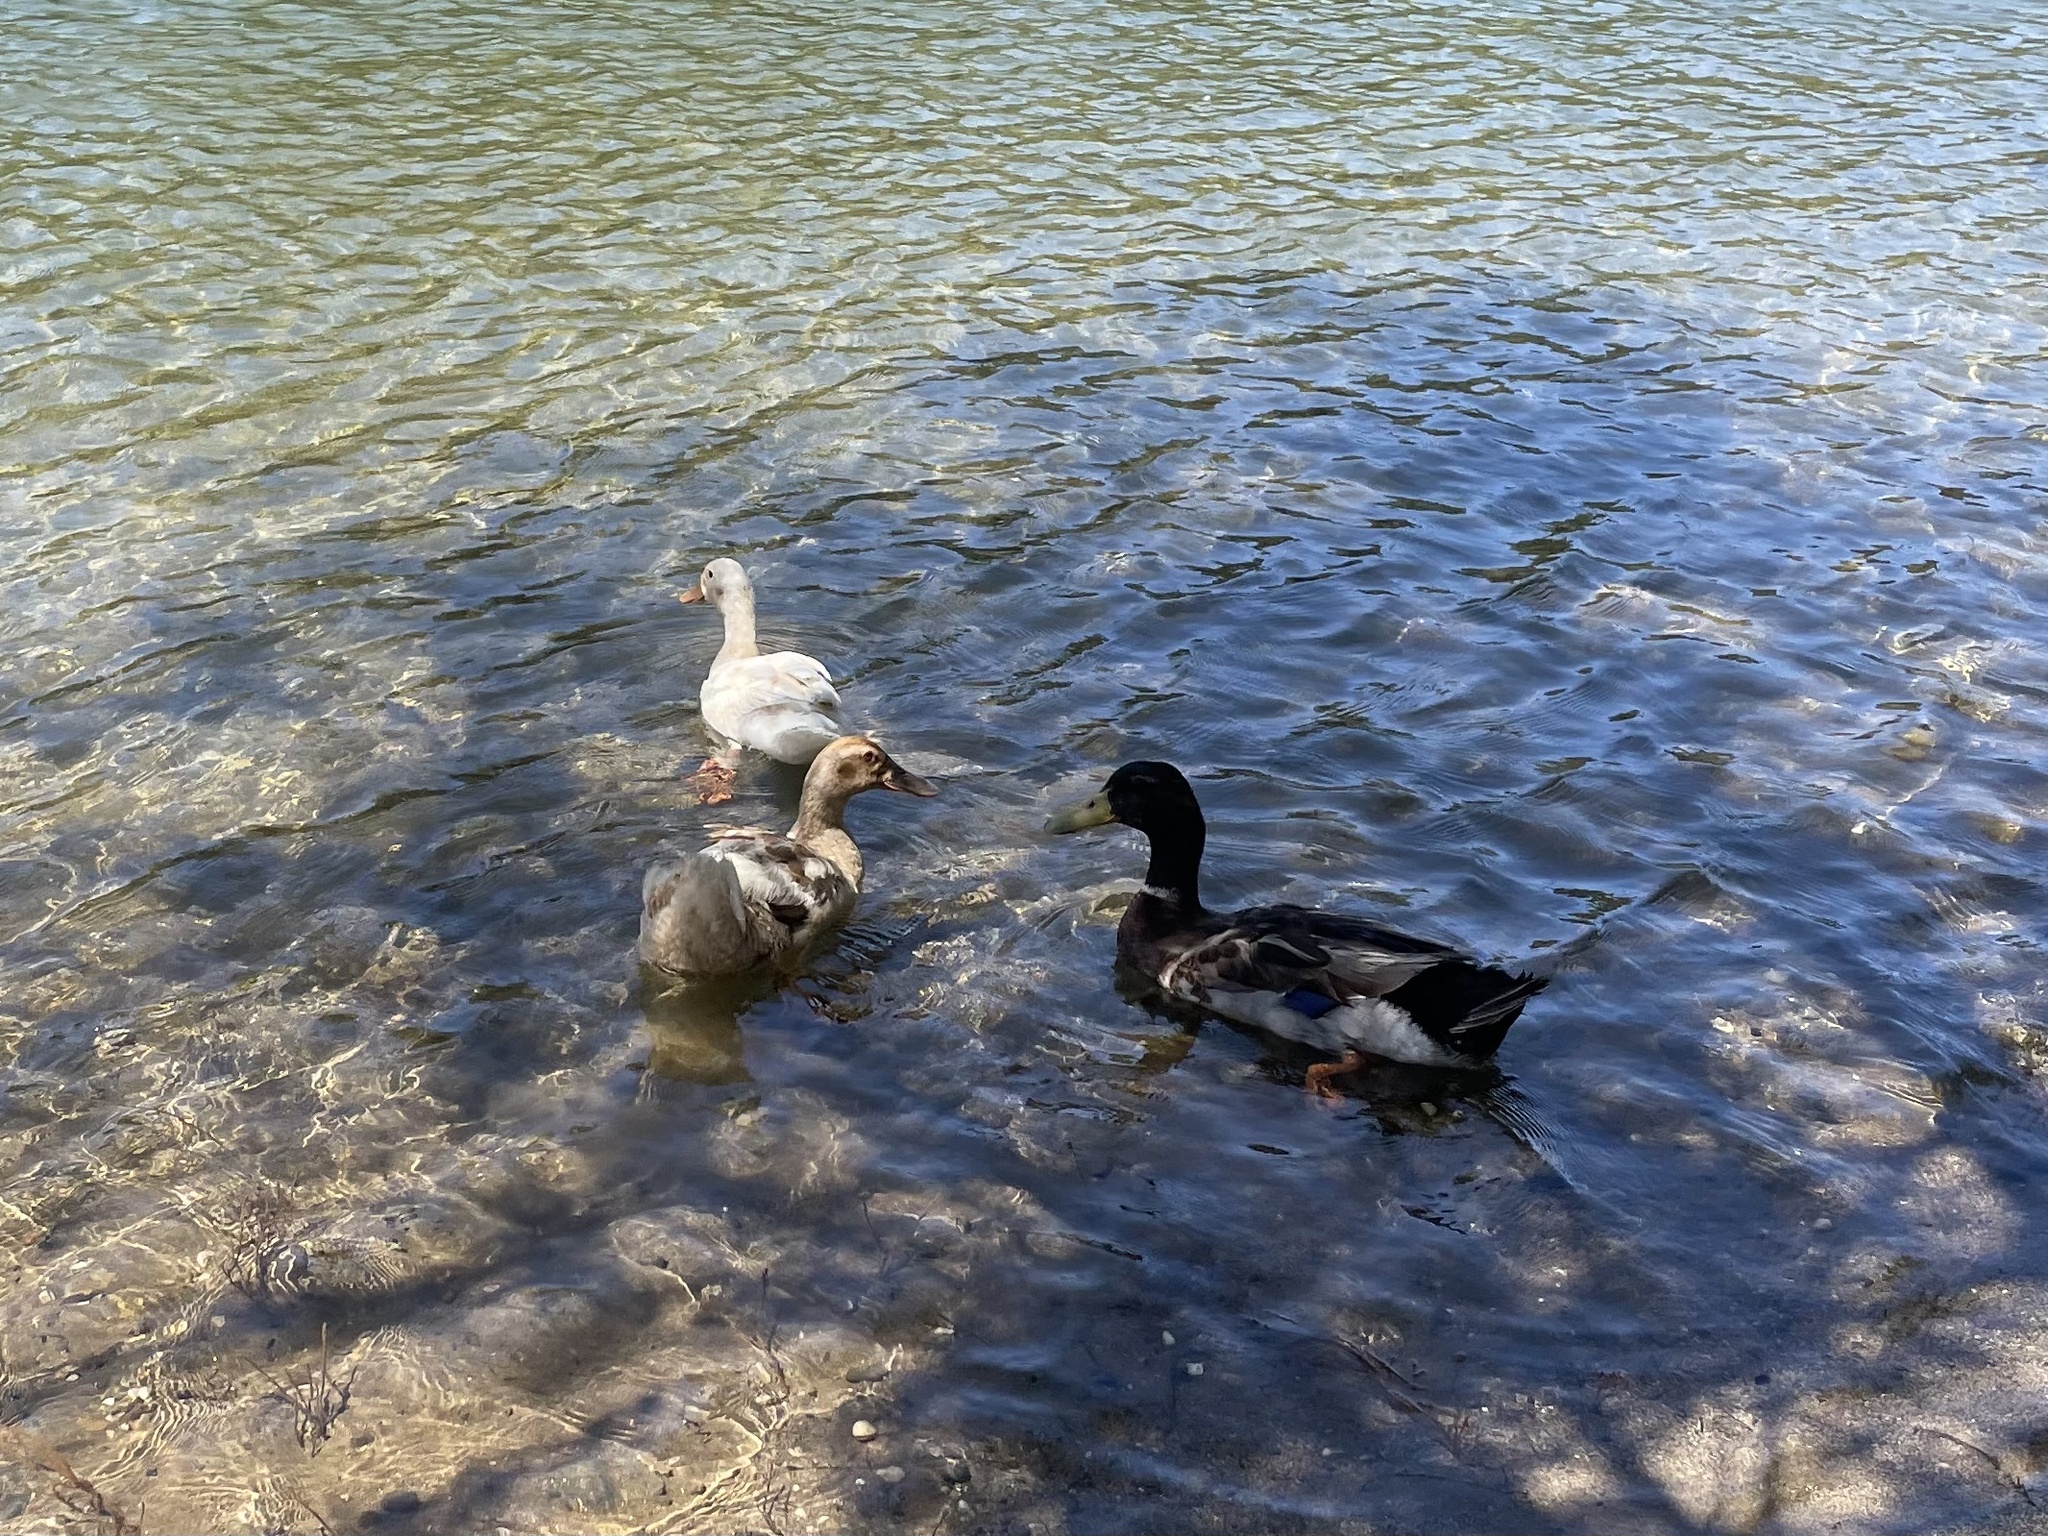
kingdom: Animalia
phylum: Chordata
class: Aves
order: Anseriformes
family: Anatidae
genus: Anas
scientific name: Anas platyrhynchos
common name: Mallard
